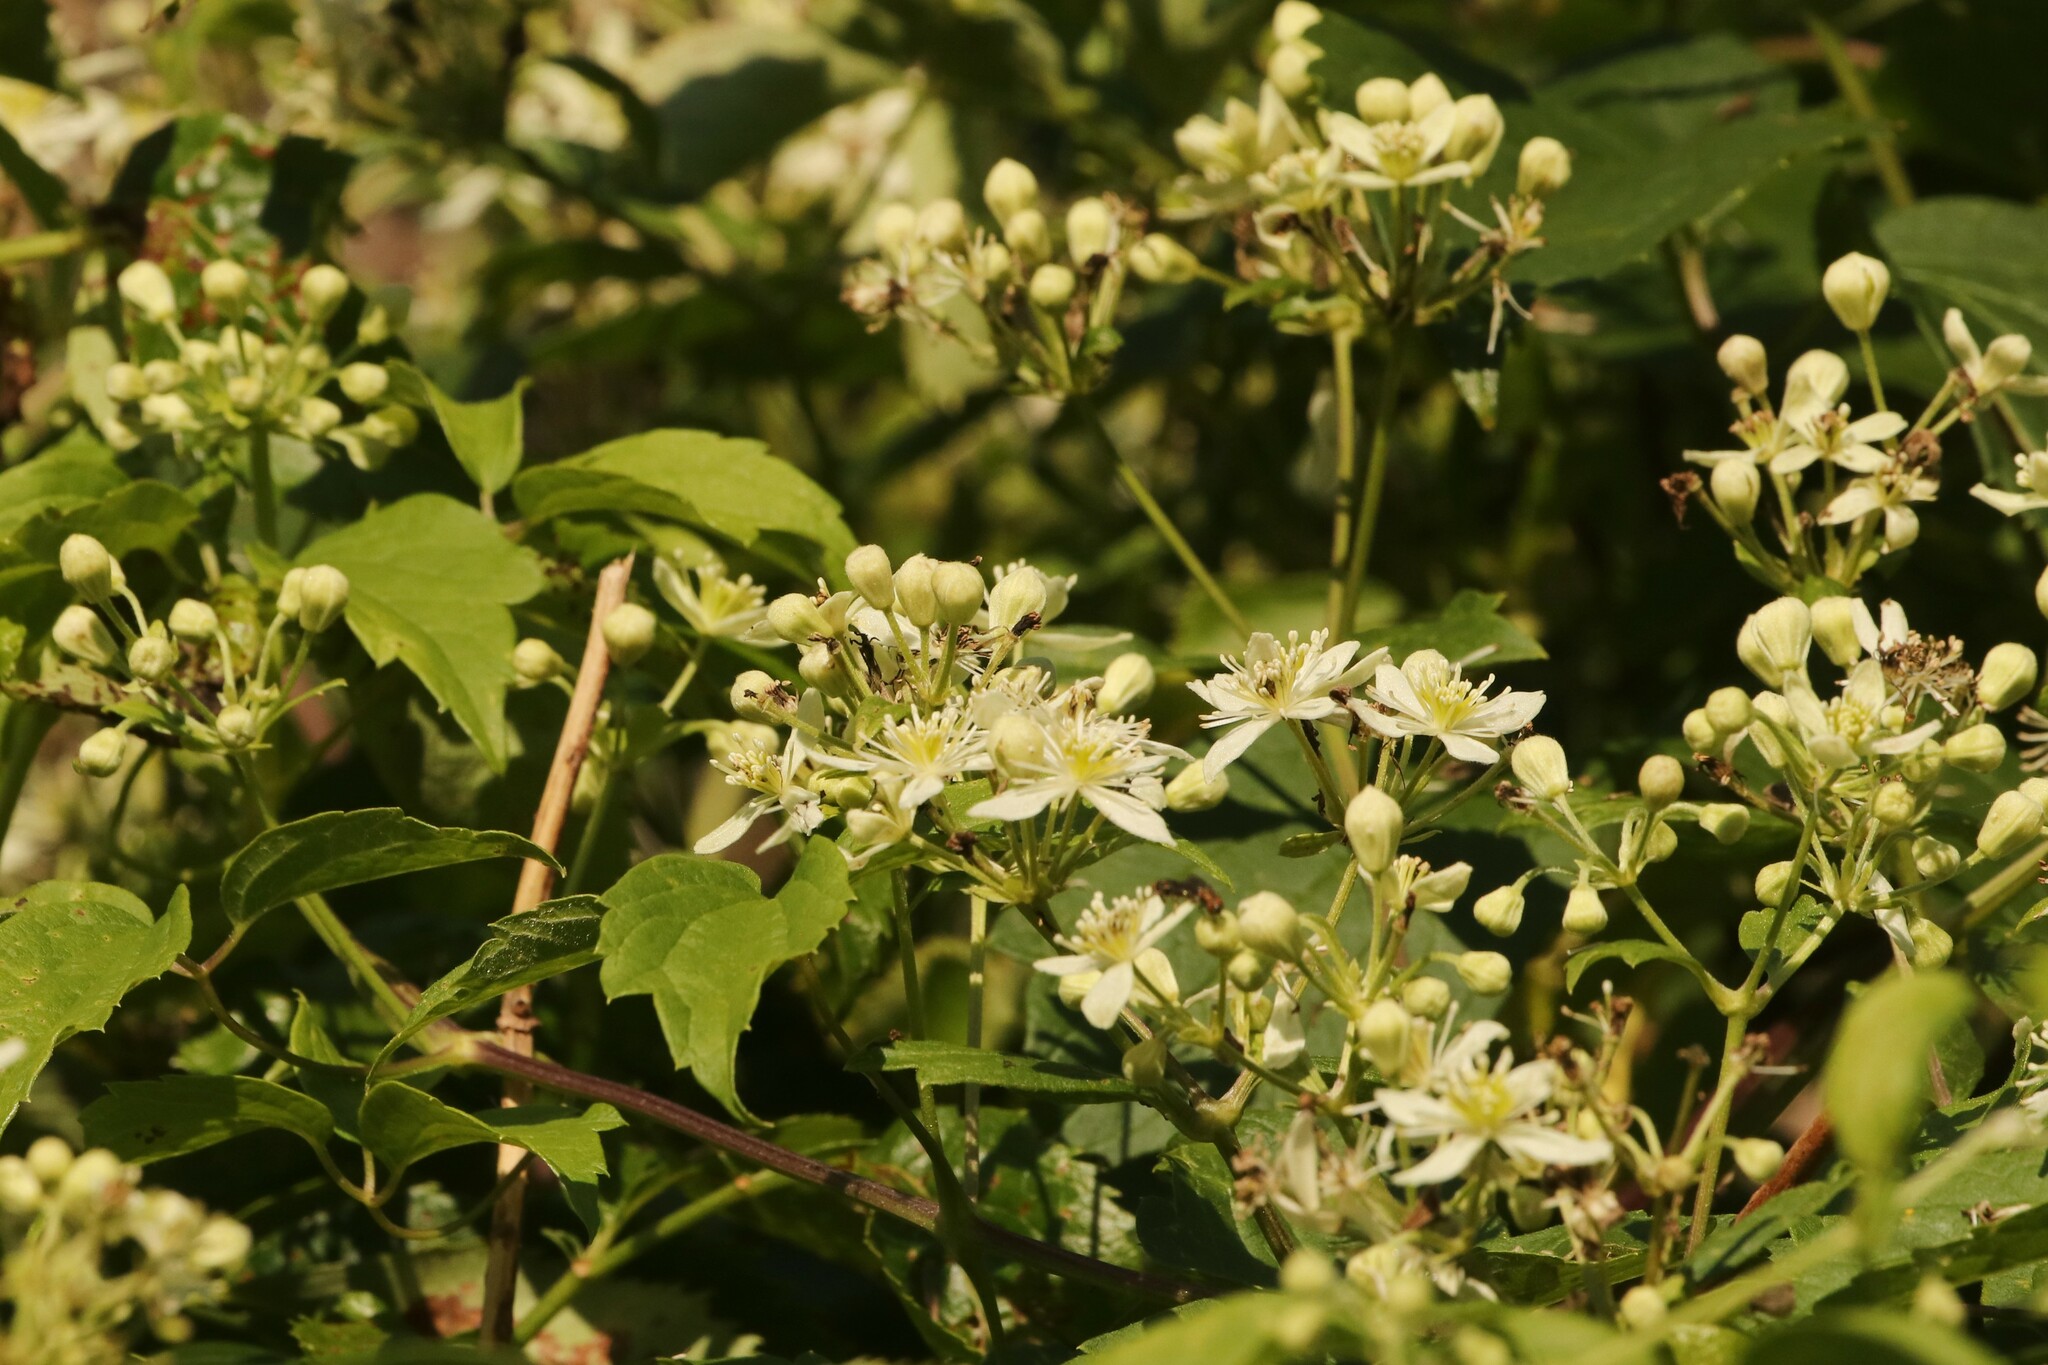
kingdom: Plantae
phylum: Tracheophyta
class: Magnoliopsida
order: Ranunculales
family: Ranunculaceae
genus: Clematis
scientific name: Clematis virginiana
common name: Virgin's-bower
